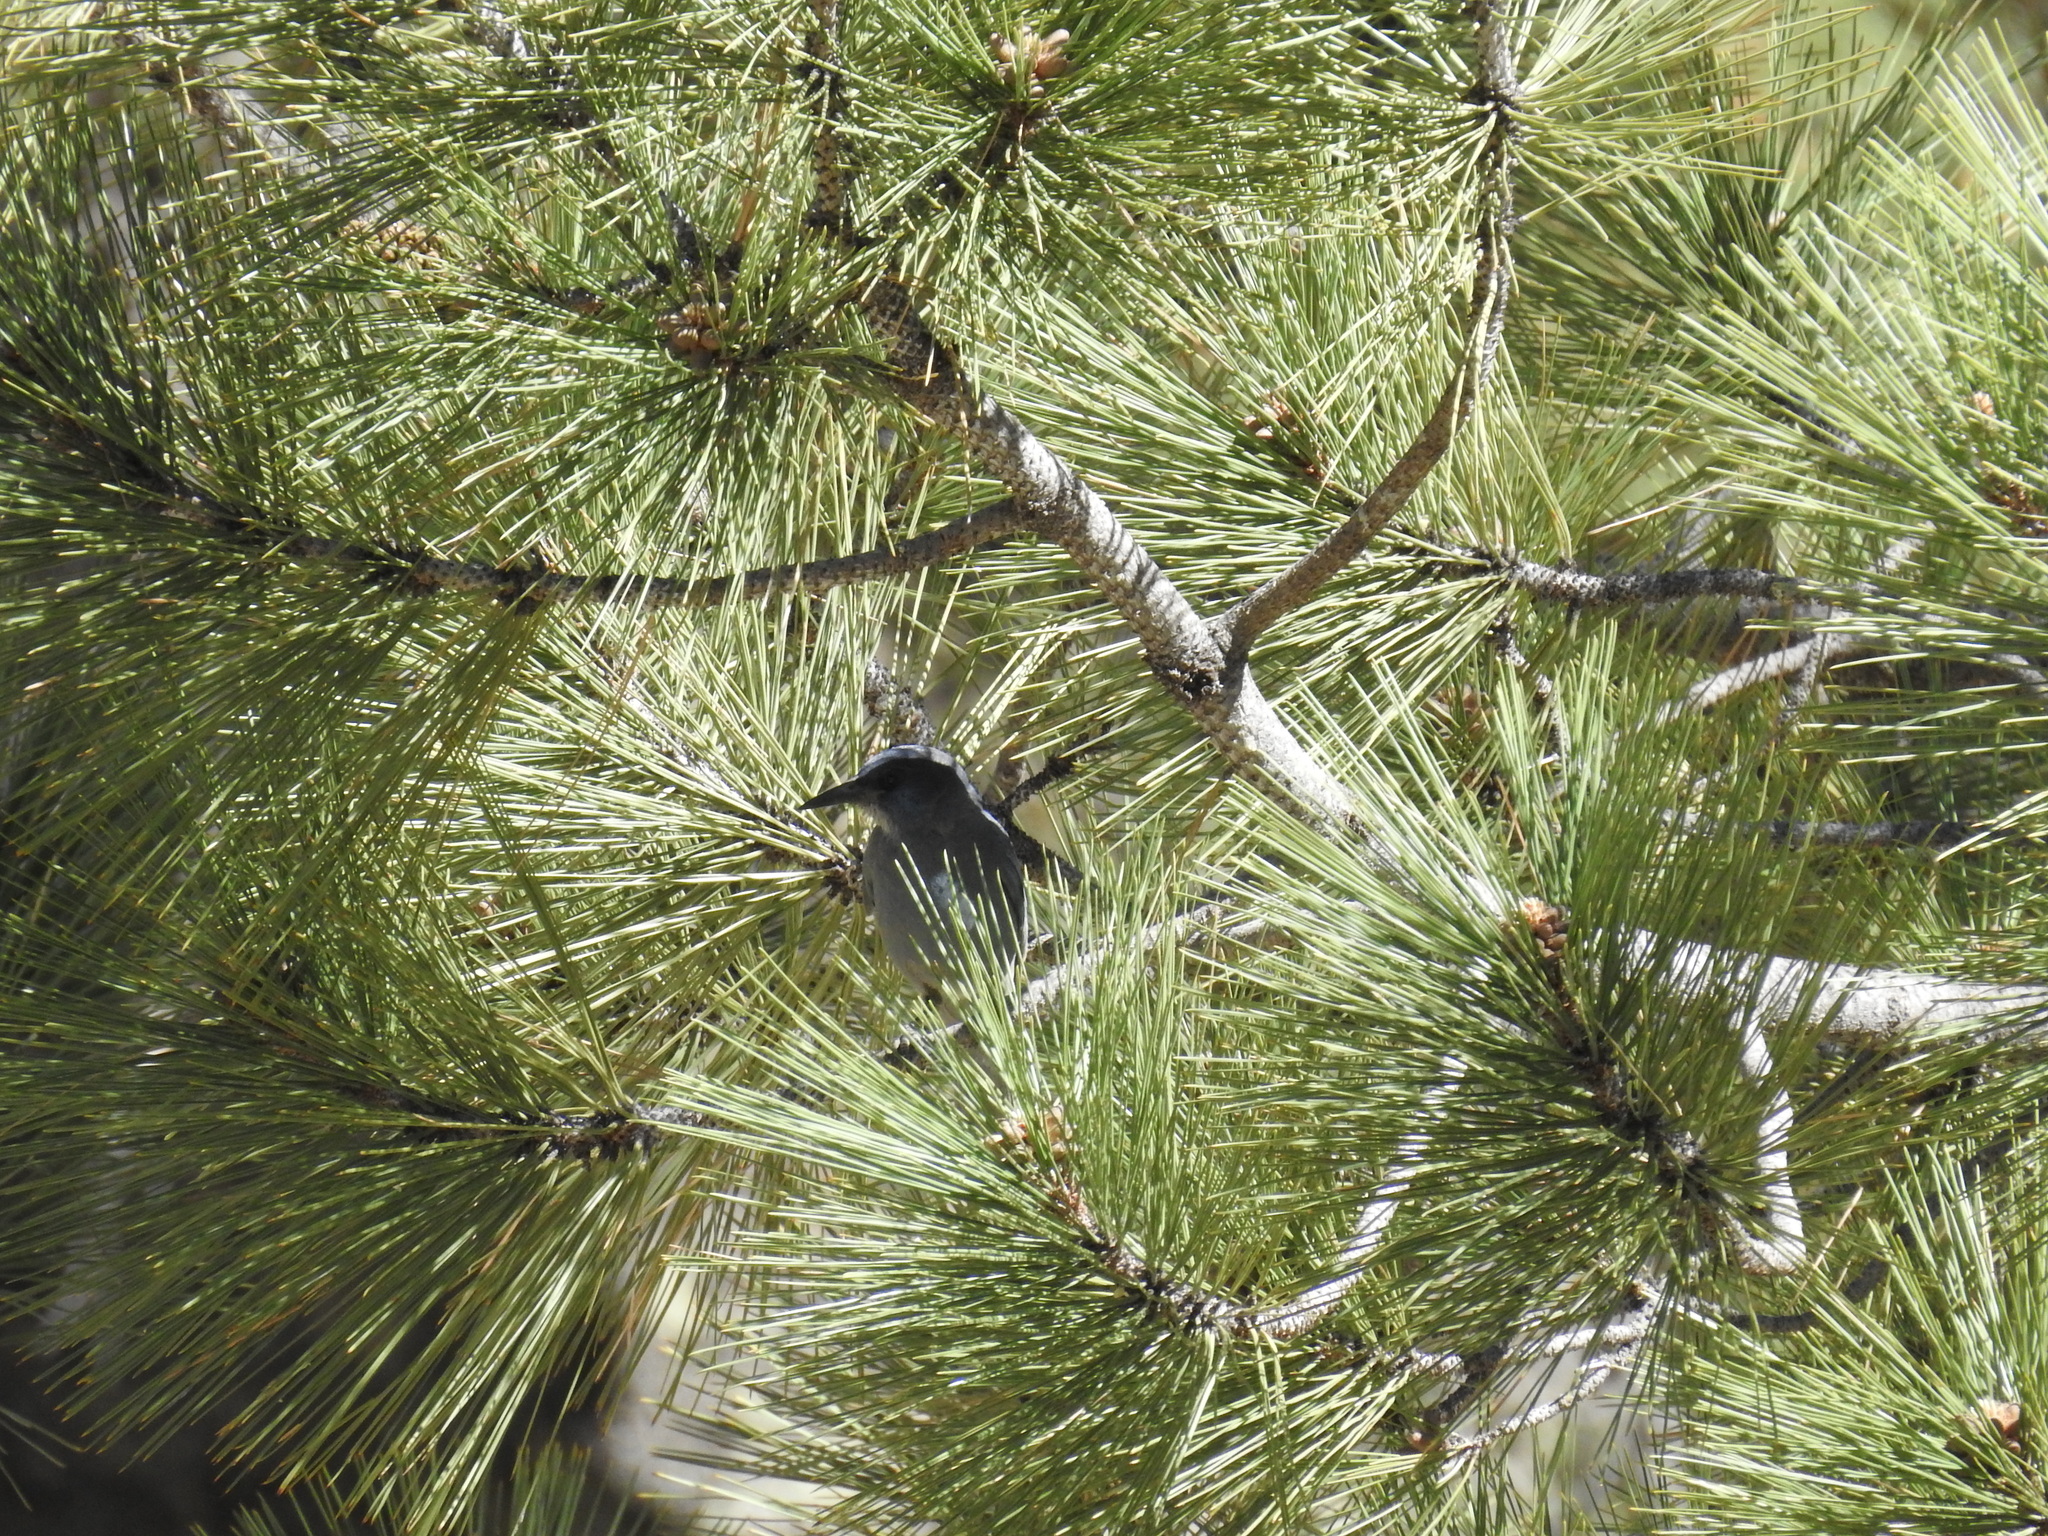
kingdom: Animalia
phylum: Chordata
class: Aves
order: Passeriformes
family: Corvidae
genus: Gymnorhinus
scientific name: Gymnorhinus cyanocephalus
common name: Pinyon jay
